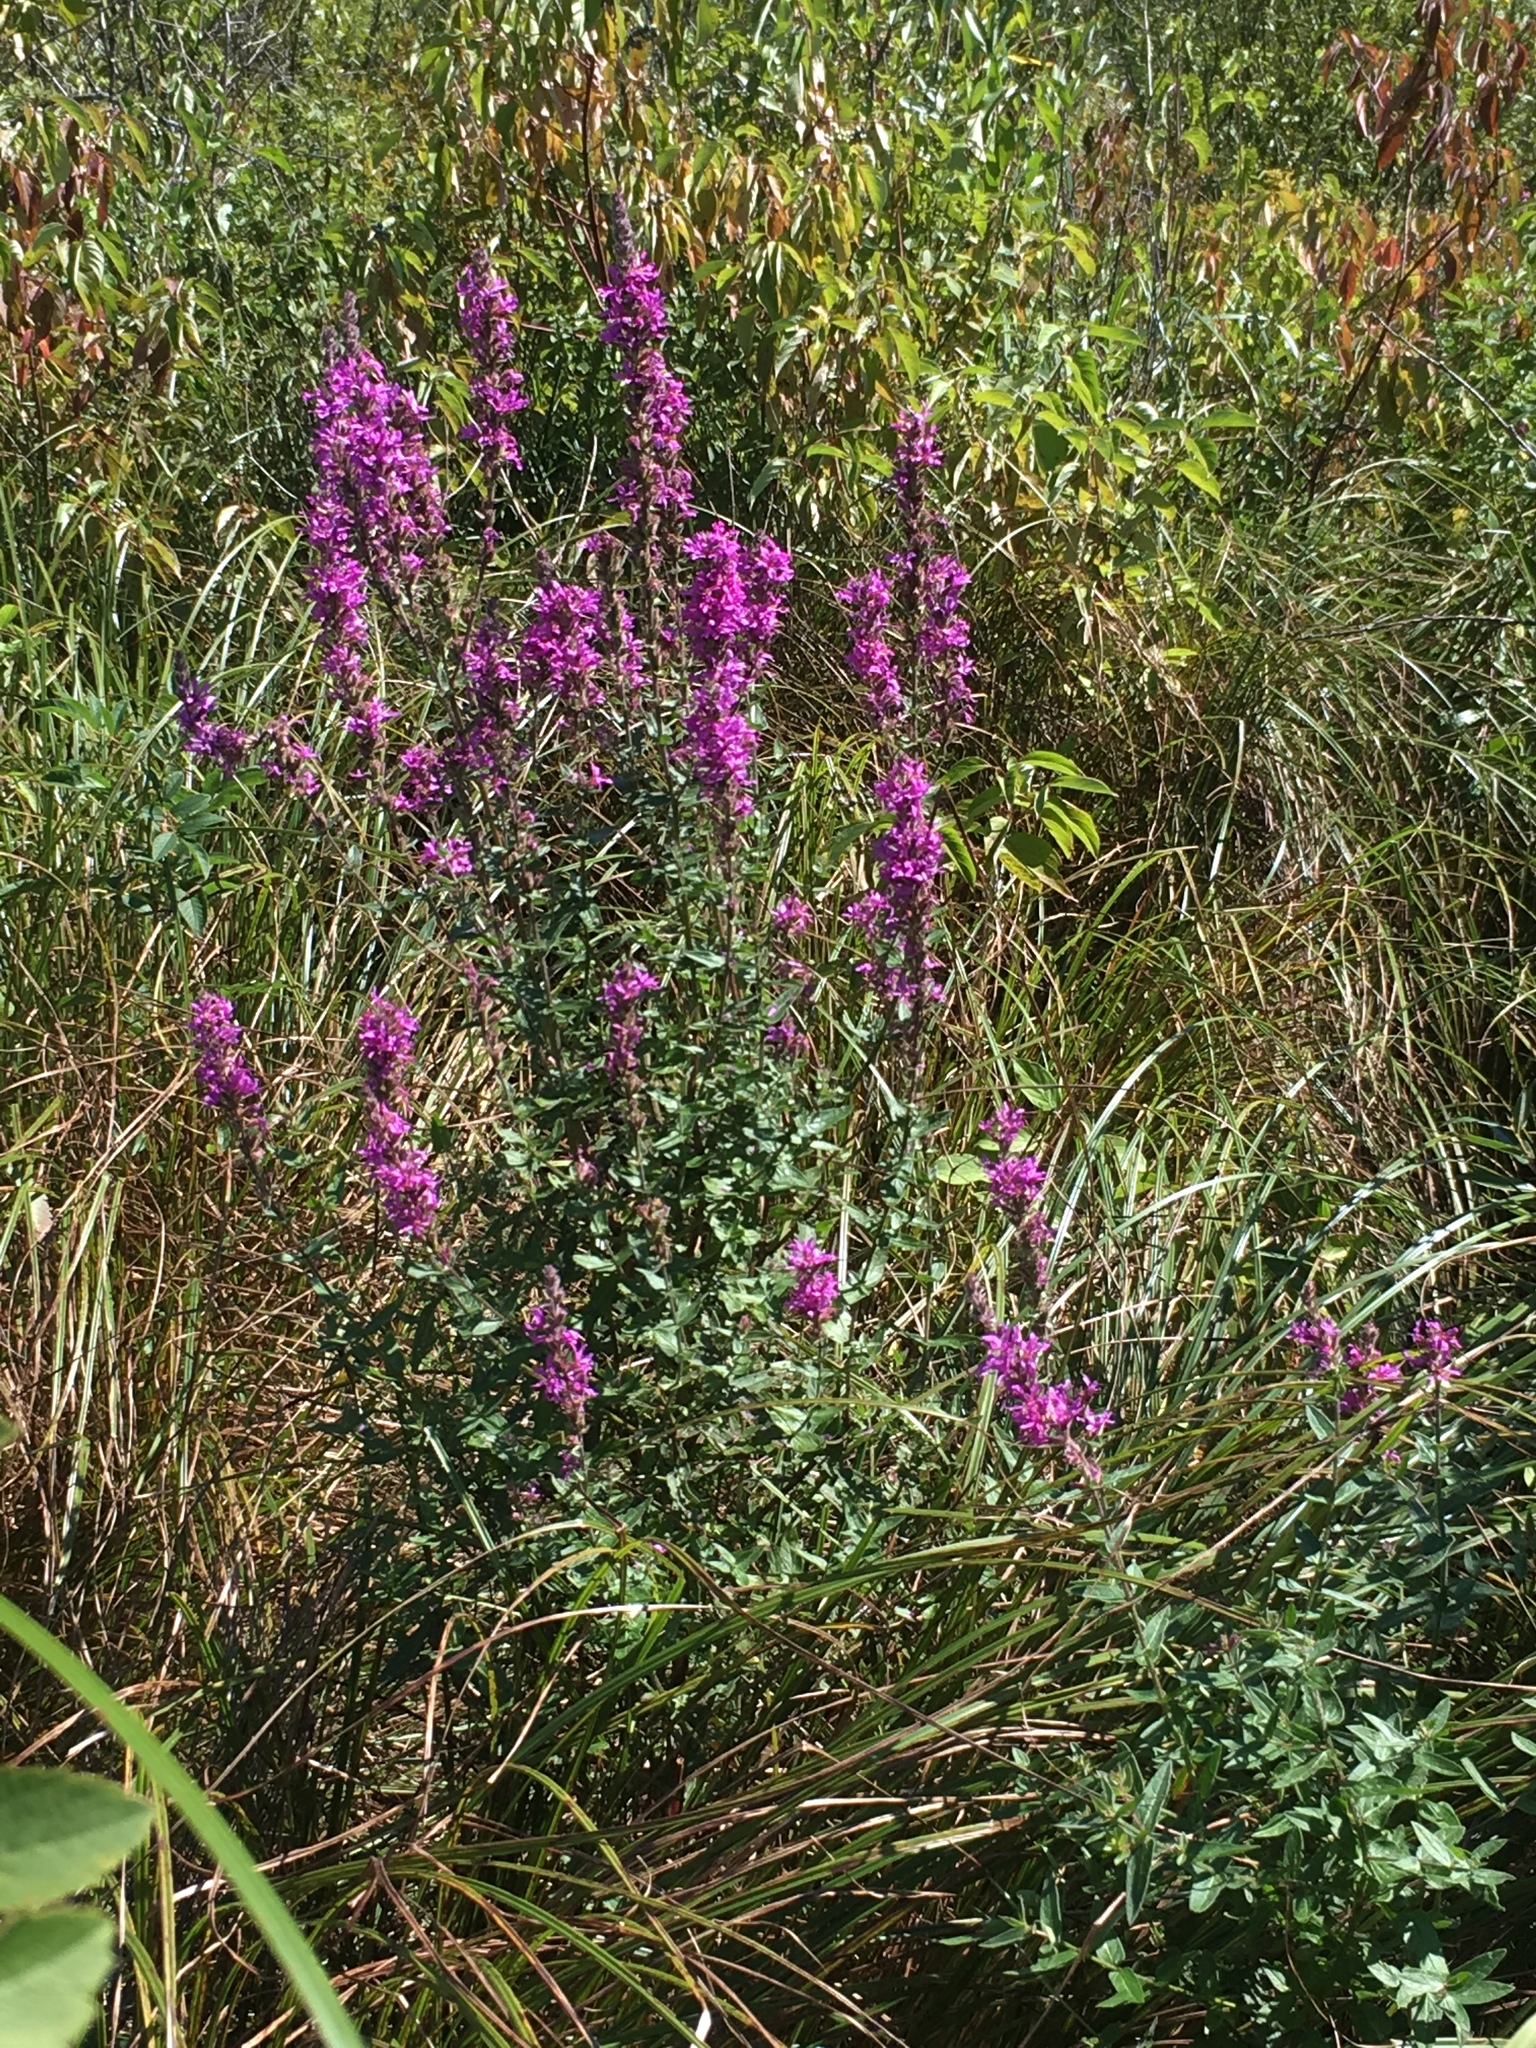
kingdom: Plantae
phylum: Tracheophyta
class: Magnoliopsida
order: Myrtales
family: Lythraceae
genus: Lythrum
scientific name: Lythrum salicaria
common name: Purple loosestrife
